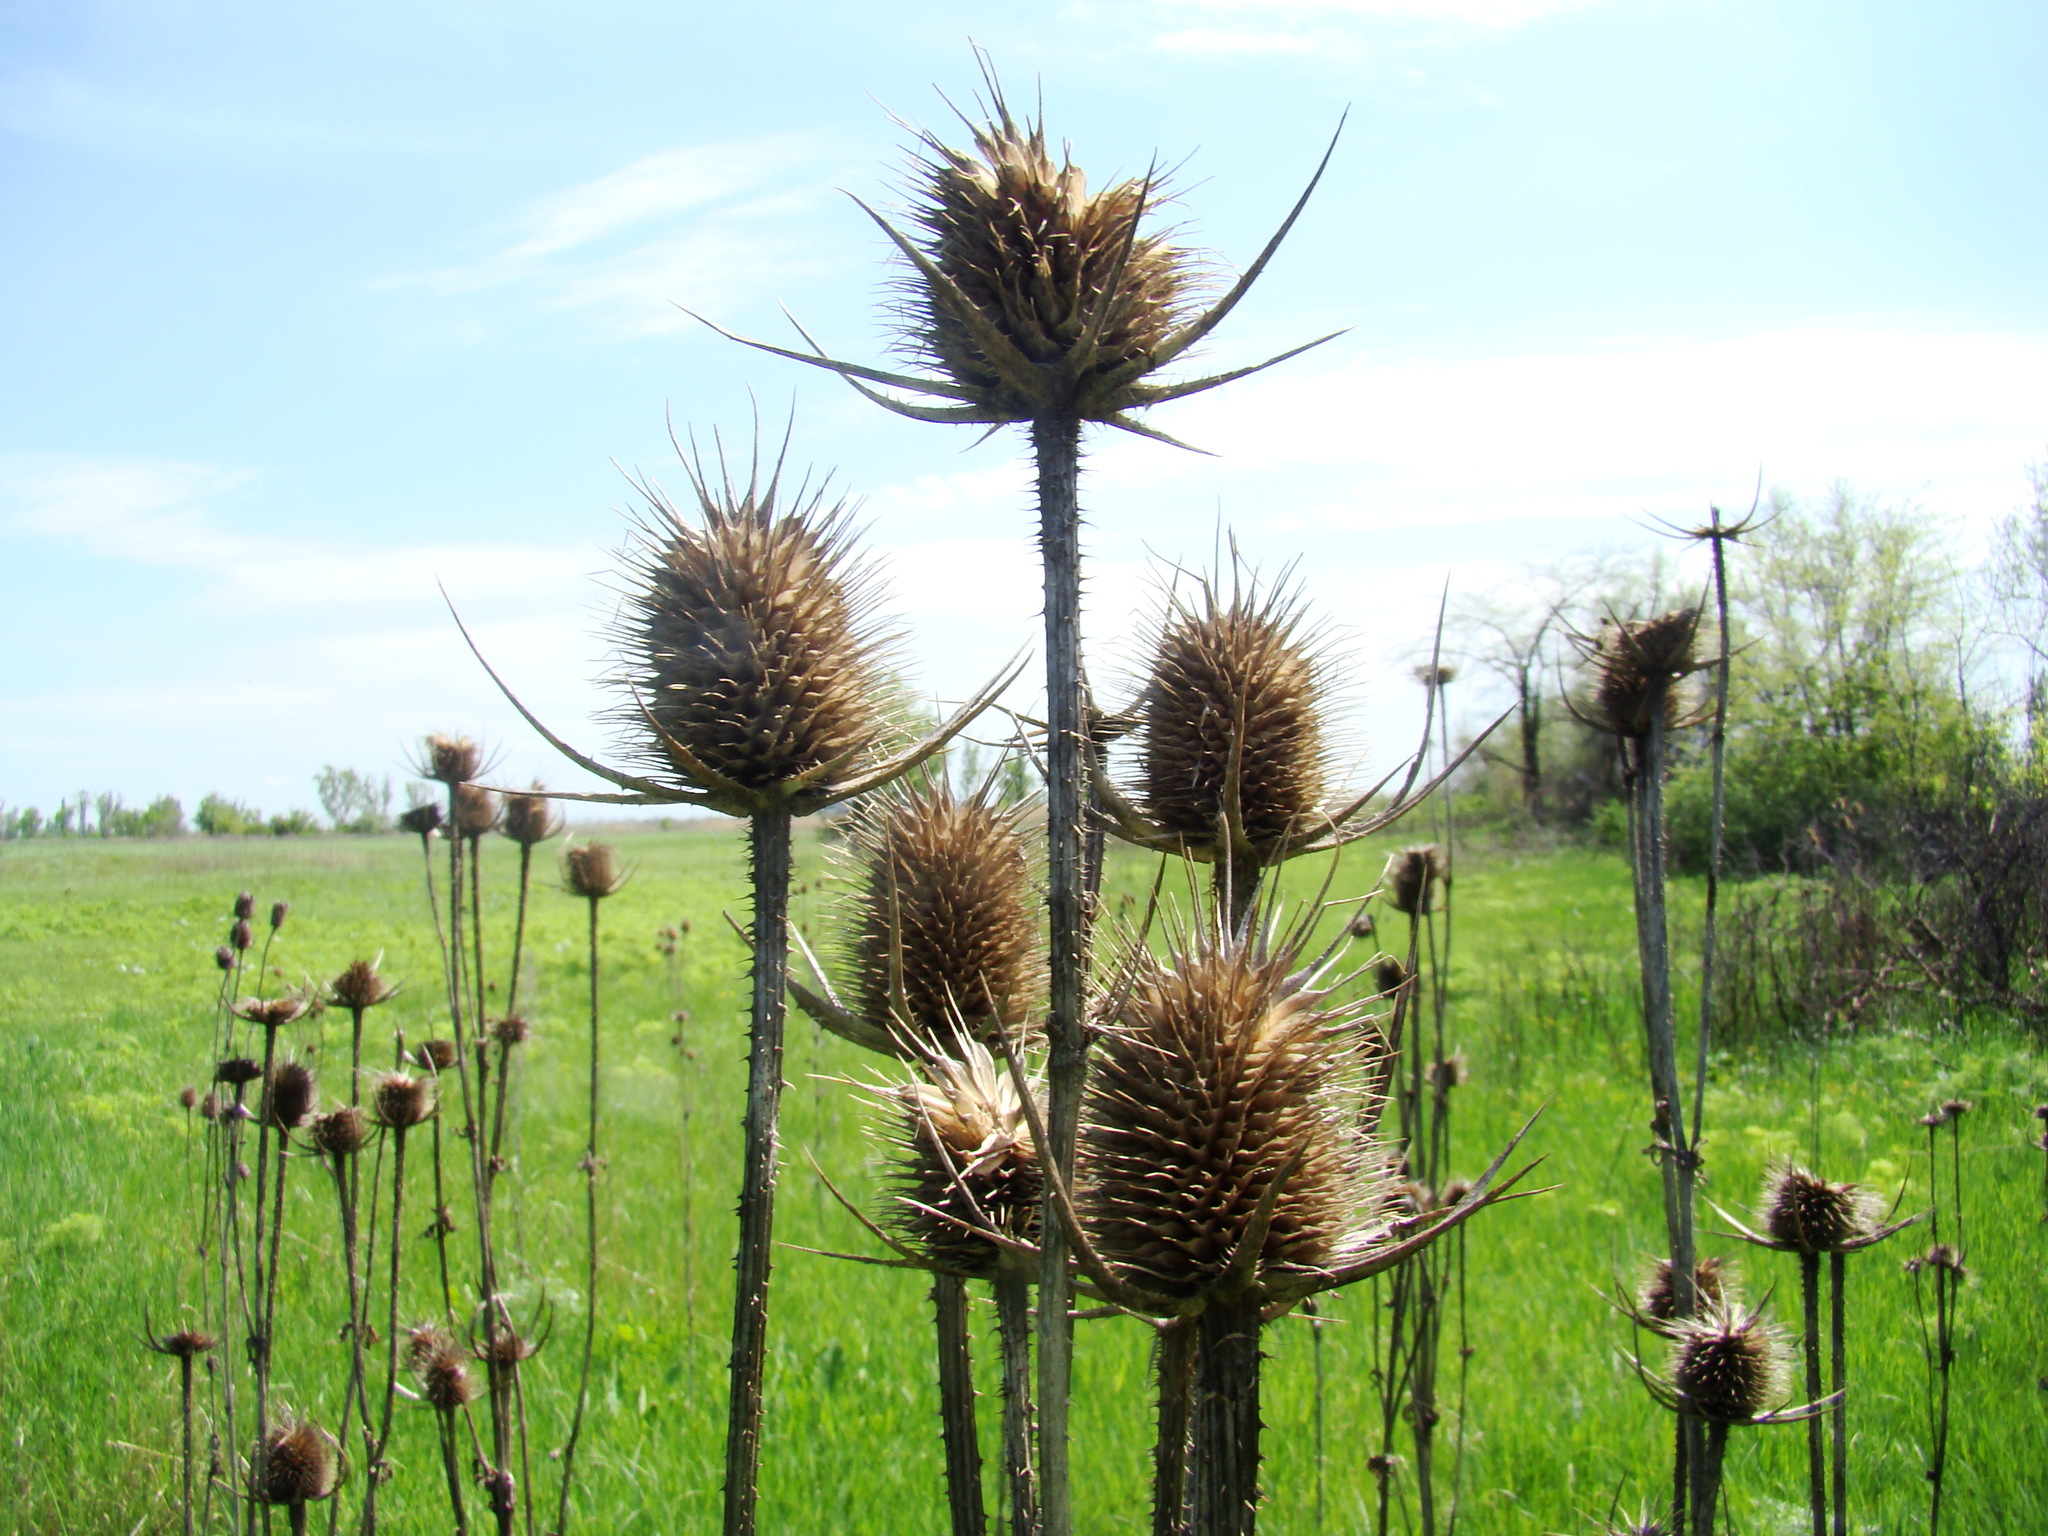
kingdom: Plantae
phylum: Tracheophyta
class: Magnoliopsida
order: Dipsacales
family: Caprifoliaceae
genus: Dipsacus
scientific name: Dipsacus laciniatus
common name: Cut-leaved teasel
